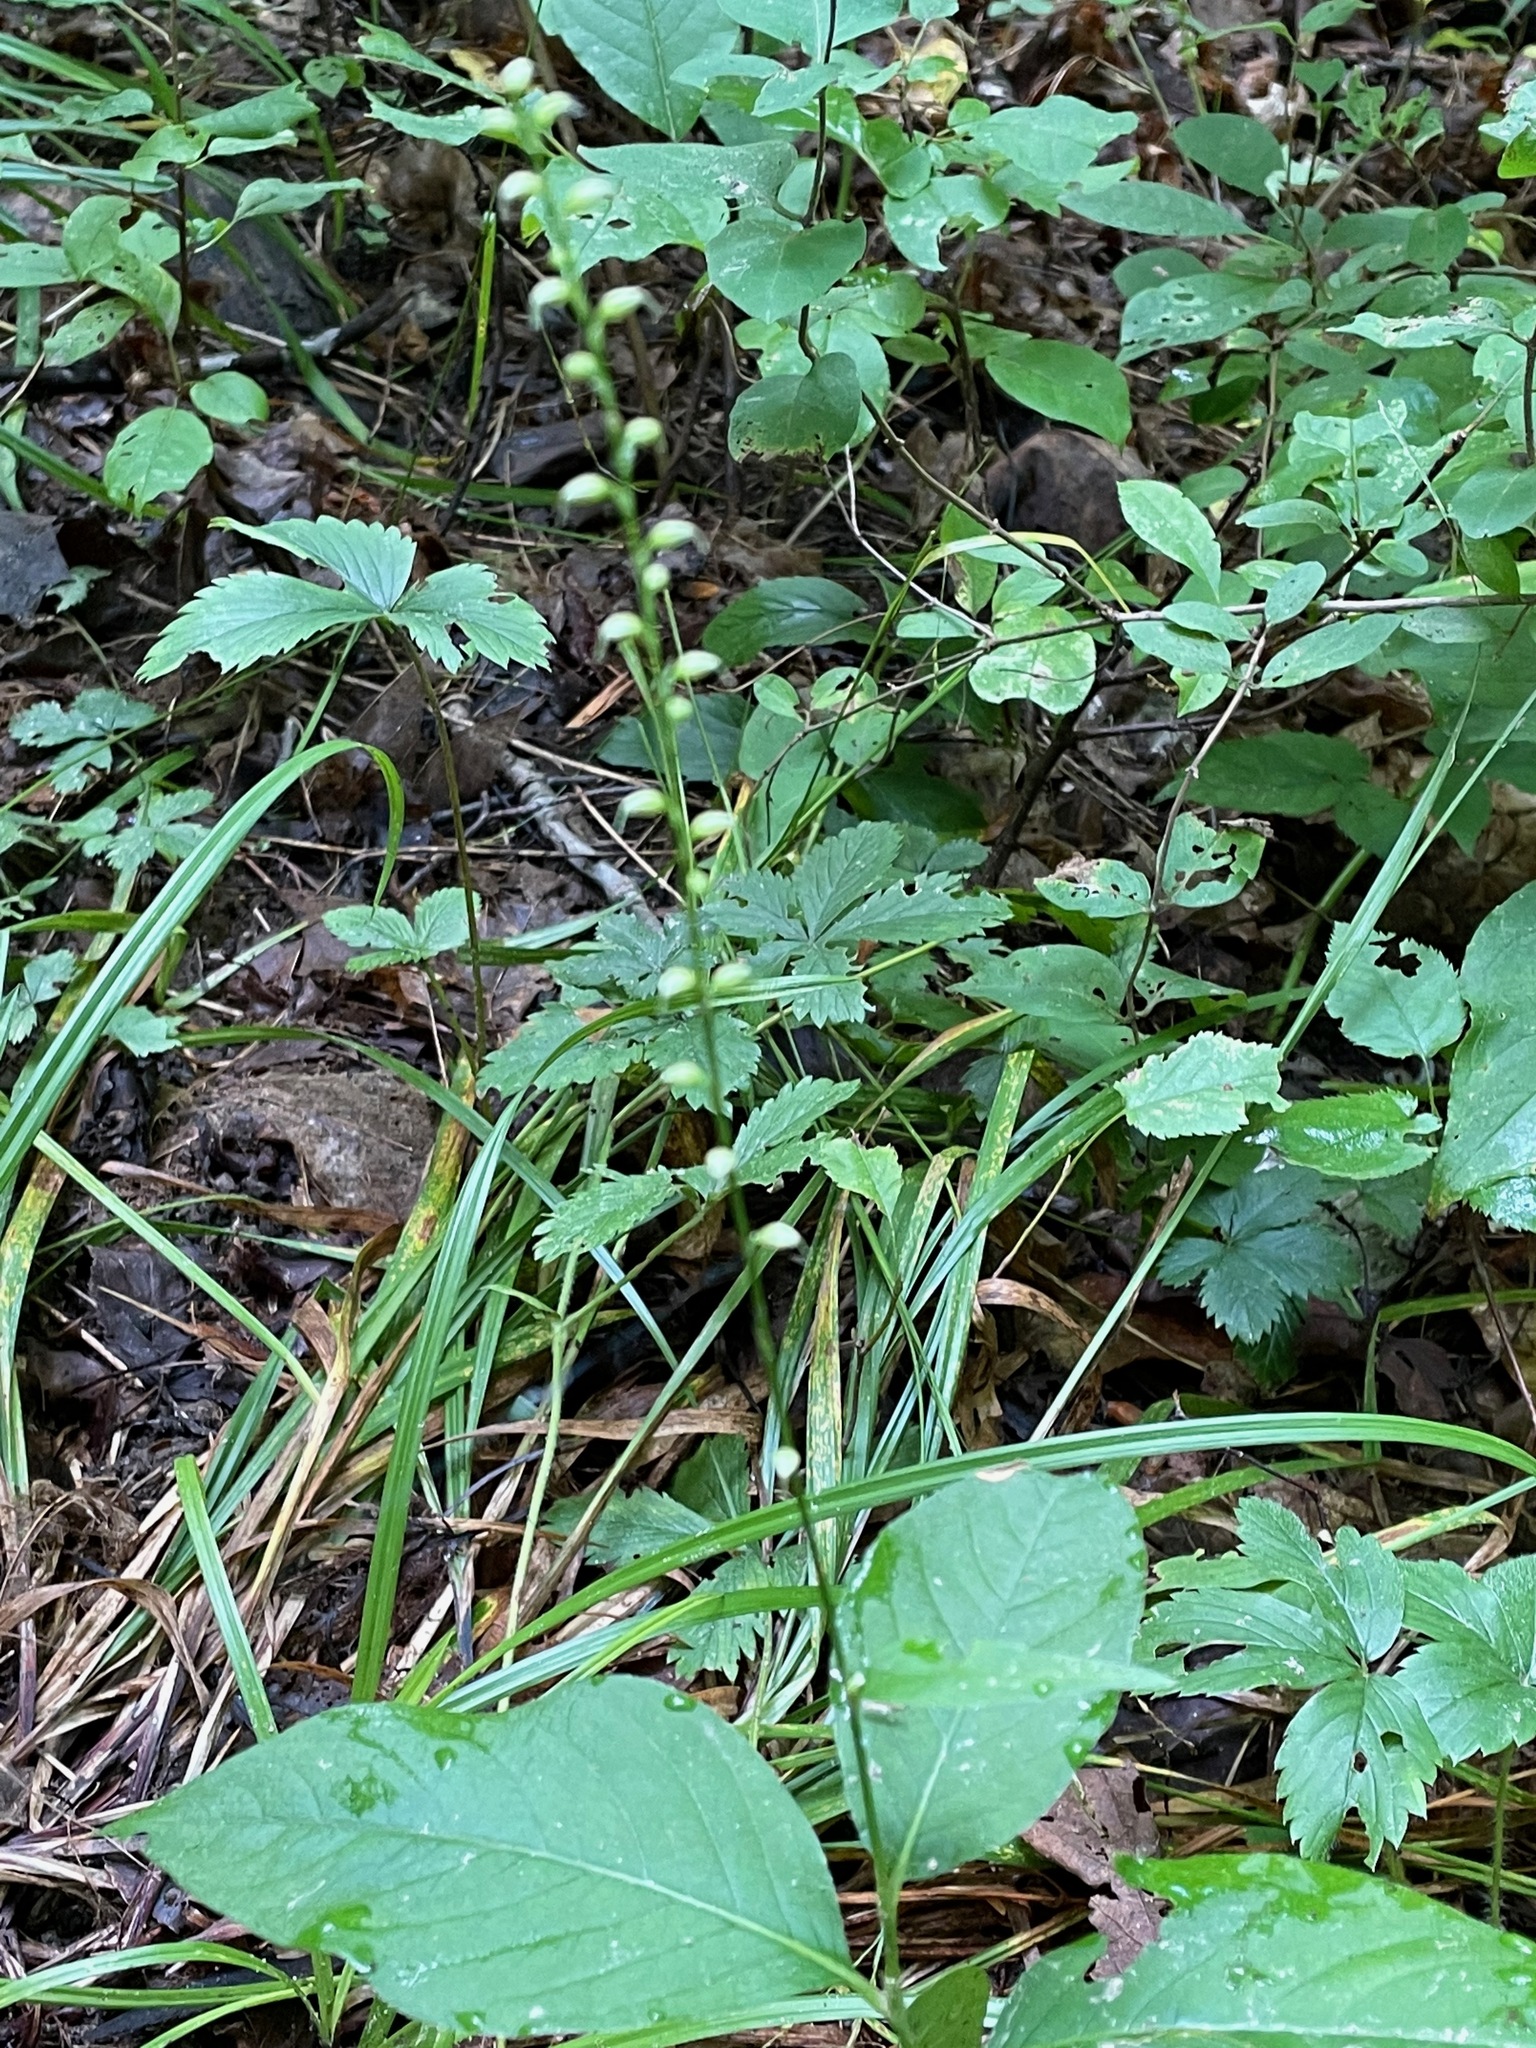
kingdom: Plantae
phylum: Tracheophyta
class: Magnoliopsida
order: Caryophyllales
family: Polygonaceae
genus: Persicaria
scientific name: Persicaria virginiana
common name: Jumpseed
